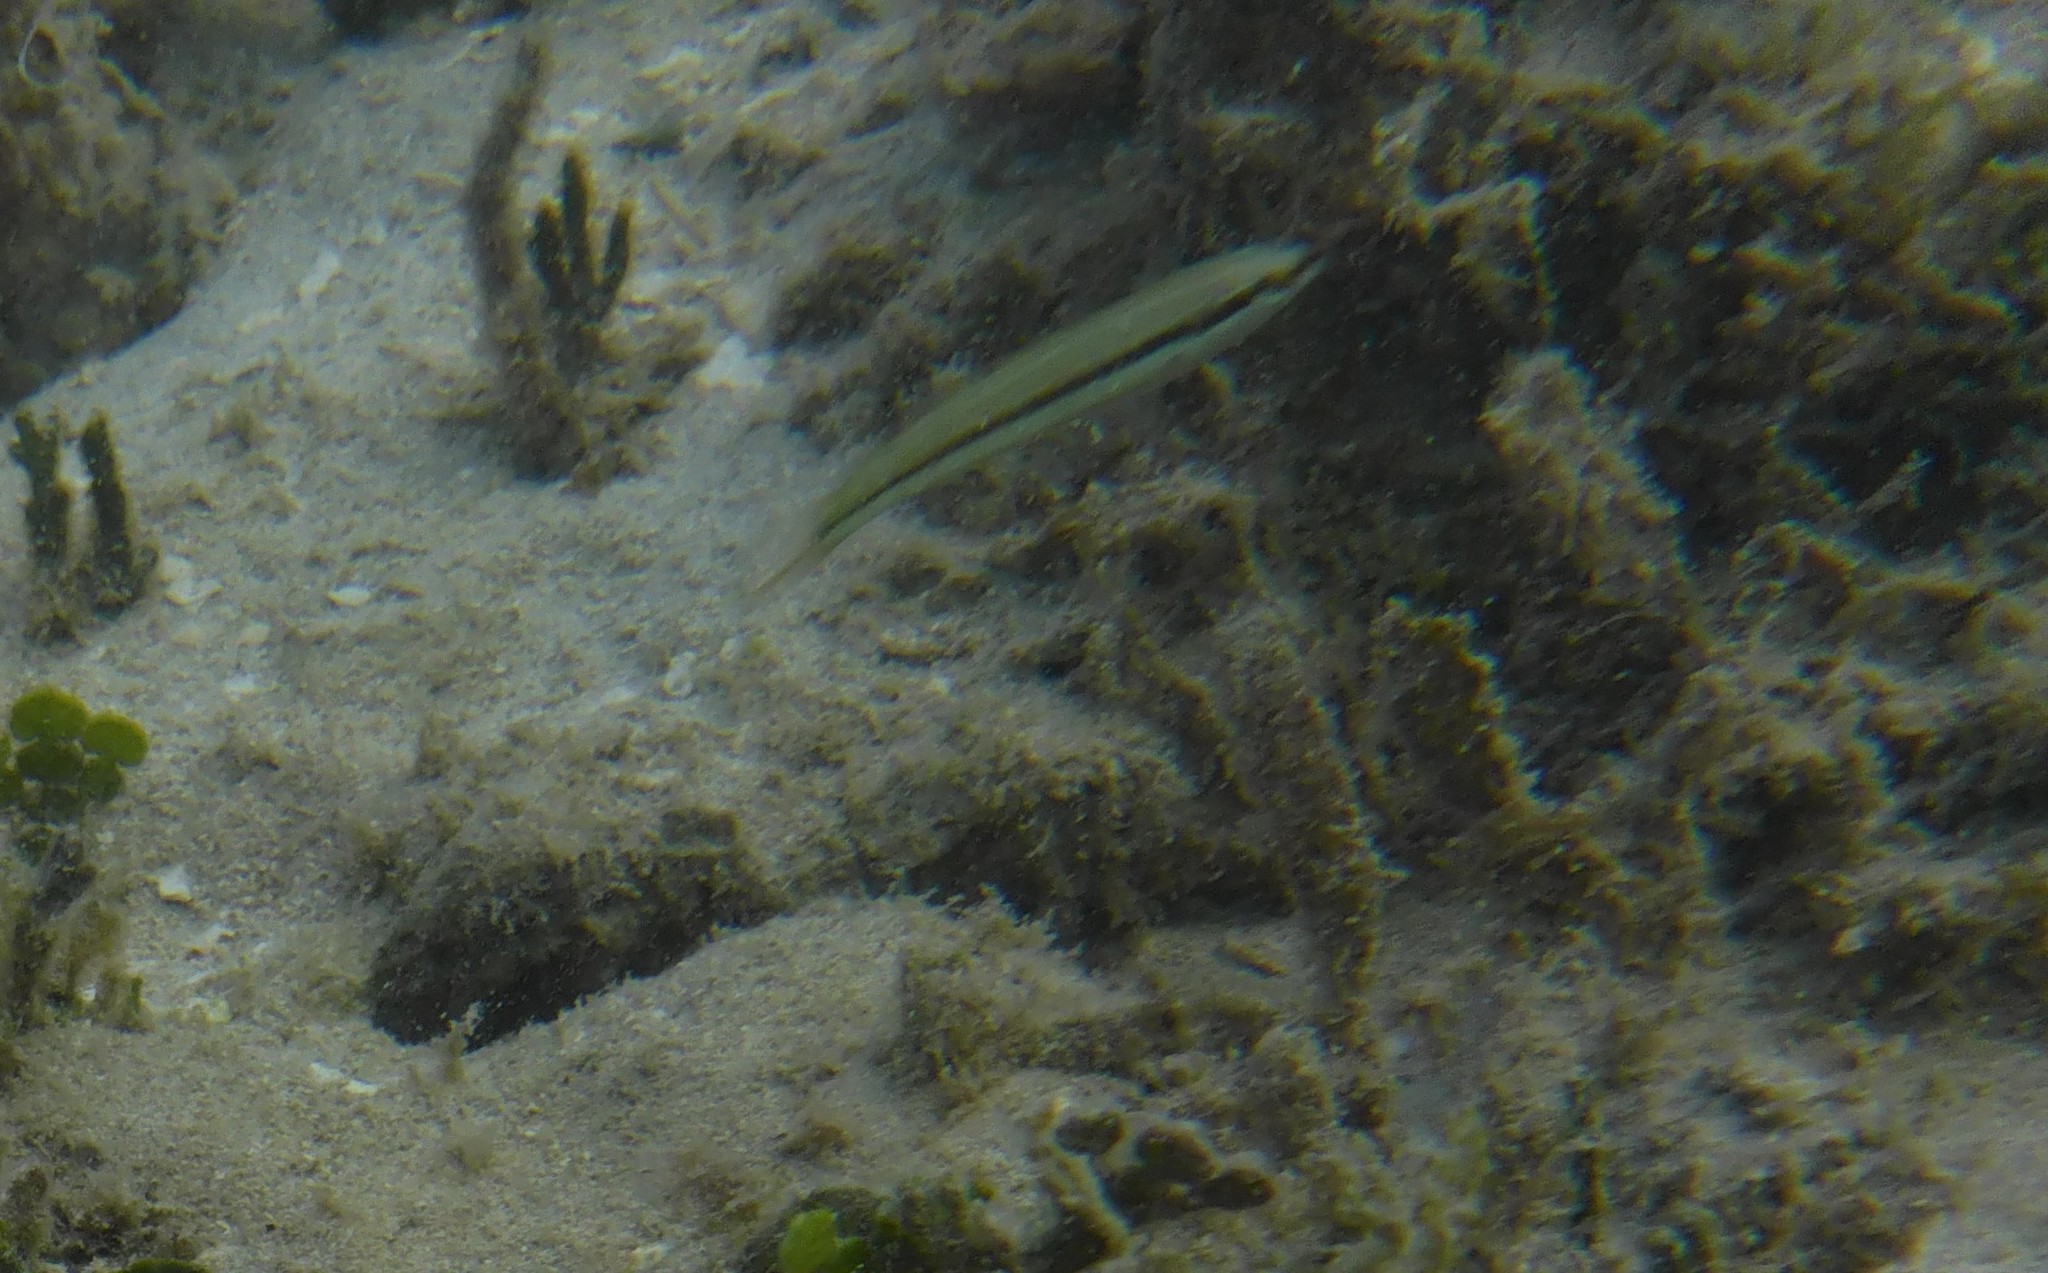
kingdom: Animalia
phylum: Chordata
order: Perciformes
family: Labridae
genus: Halichoeres
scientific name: Halichoeres bivittatus
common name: Slippery dick
